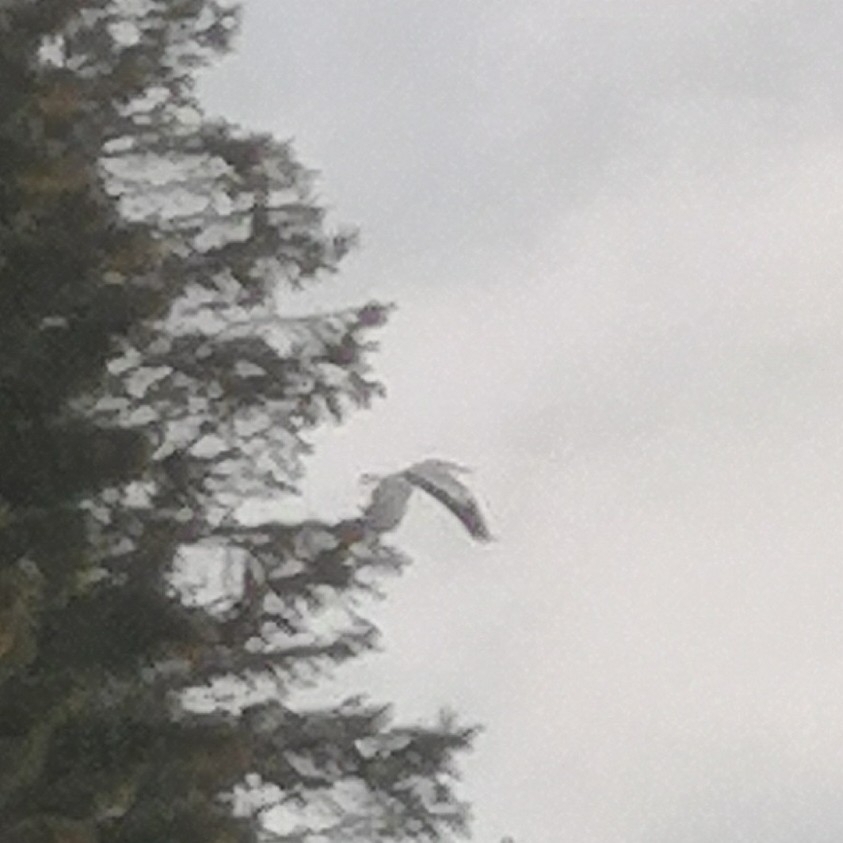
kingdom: Animalia
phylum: Chordata
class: Aves
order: Pelecaniformes
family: Ardeidae
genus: Ardea
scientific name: Ardea cinerea
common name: Grey heron
